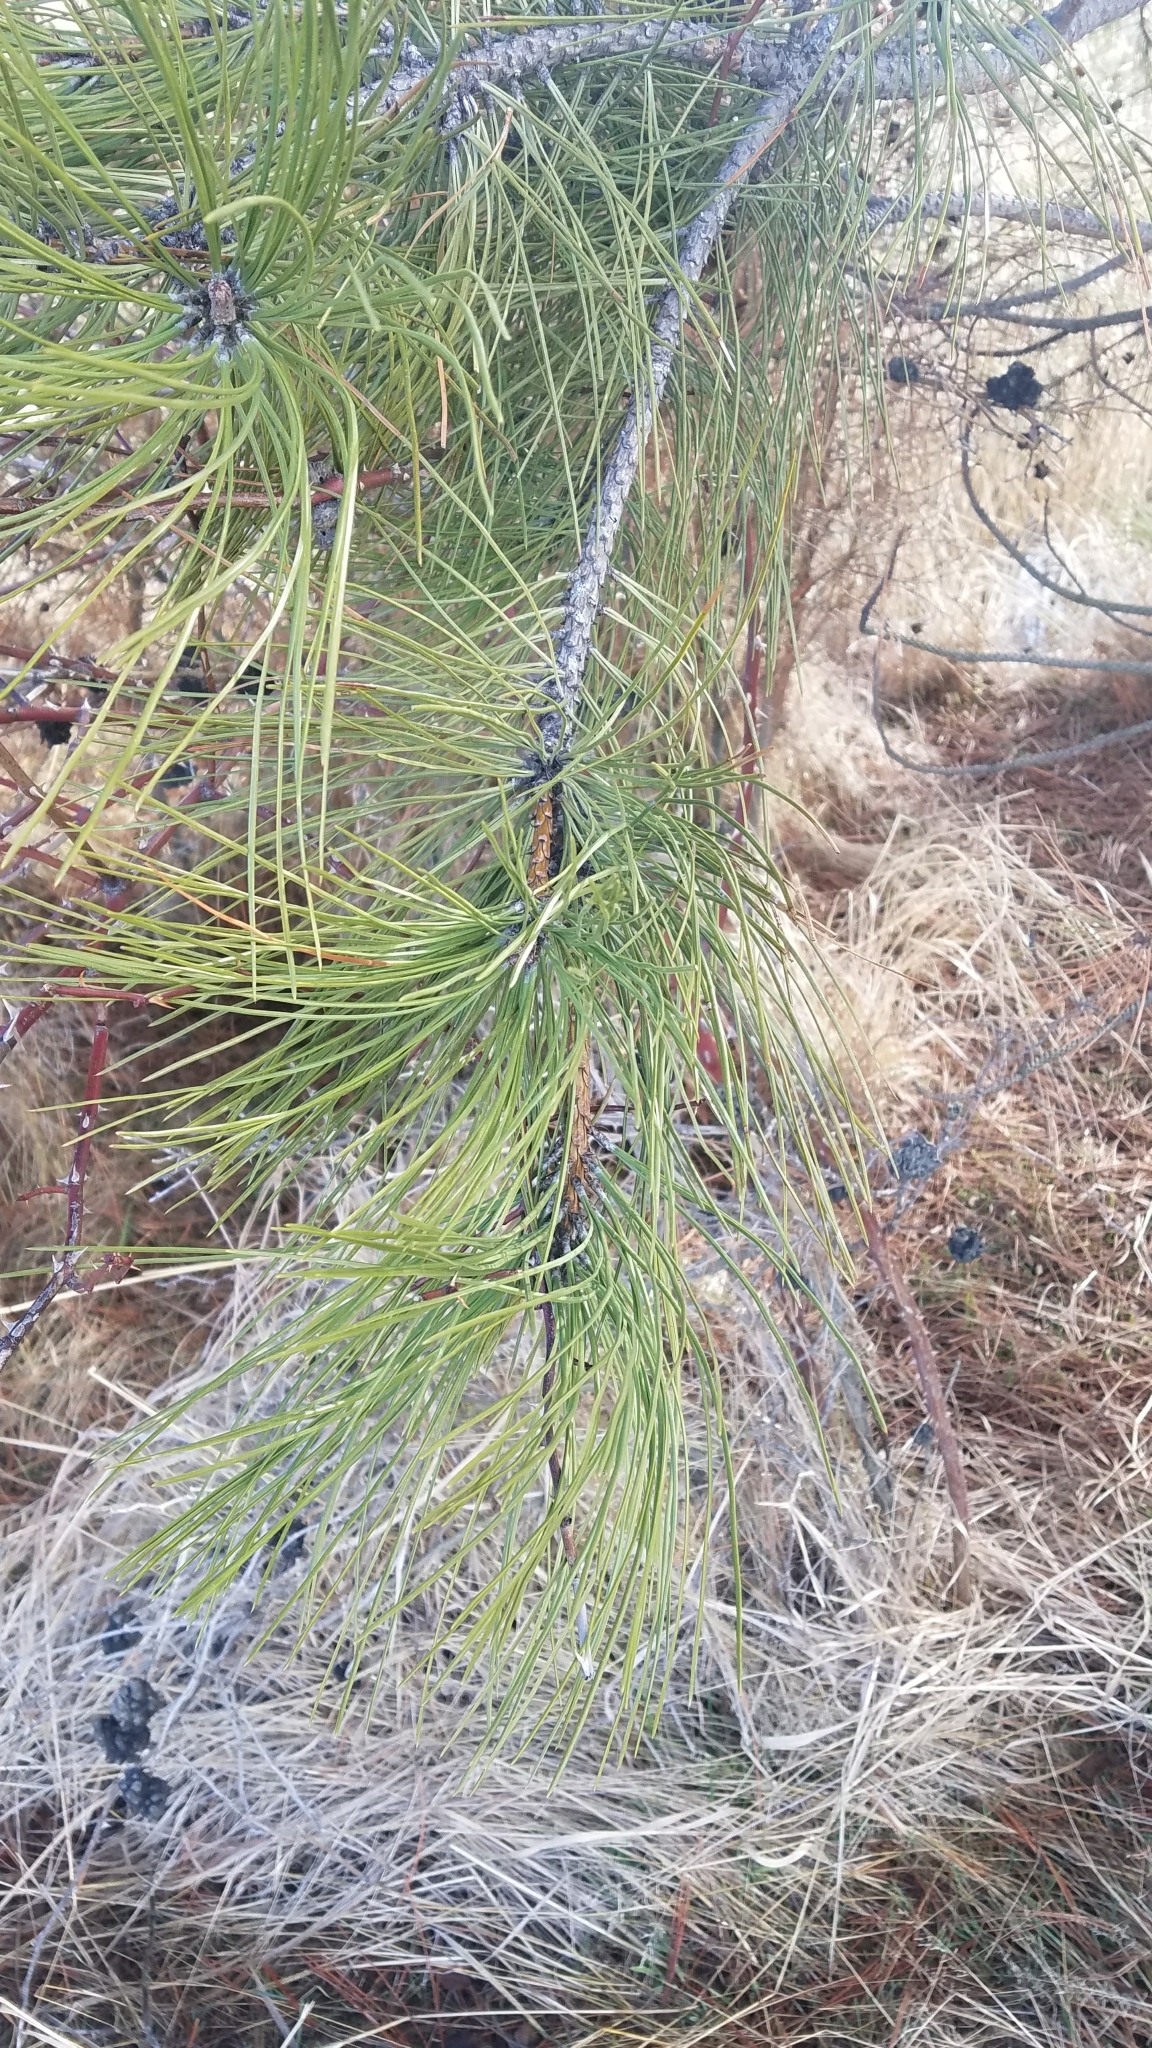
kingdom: Plantae
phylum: Tracheophyta
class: Pinopsida
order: Pinales
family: Pinaceae
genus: Pinus
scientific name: Pinus ponderosa
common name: Western yellow-pine
